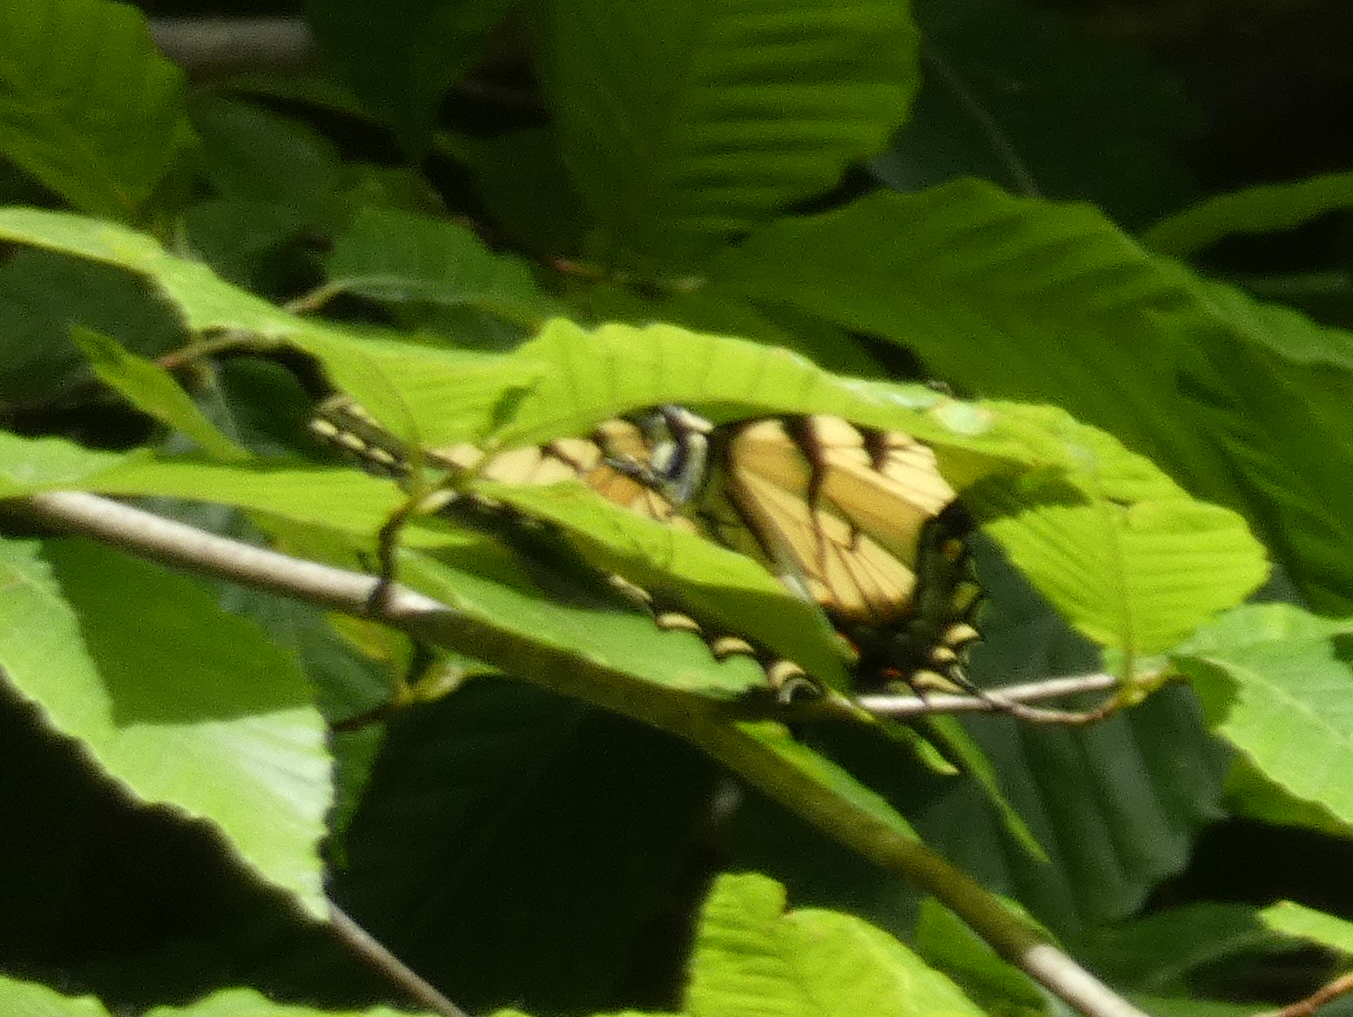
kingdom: Animalia
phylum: Arthropoda
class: Insecta
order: Lepidoptera
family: Papilionidae
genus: Papilio
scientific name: Papilio glaucus
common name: Tiger swallowtail
